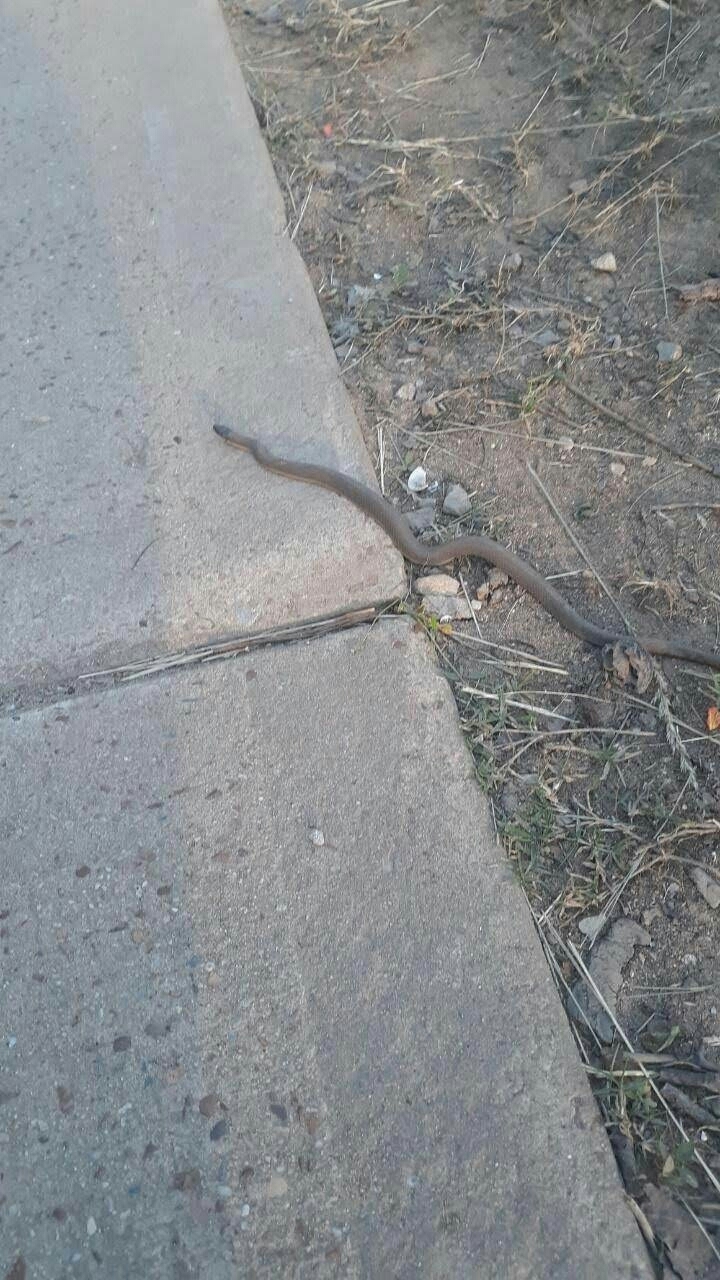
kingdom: Animalia
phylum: Chordata
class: Squamata
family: Colubridae
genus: Regina
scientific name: Regina septemvittata
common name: Queen snake
